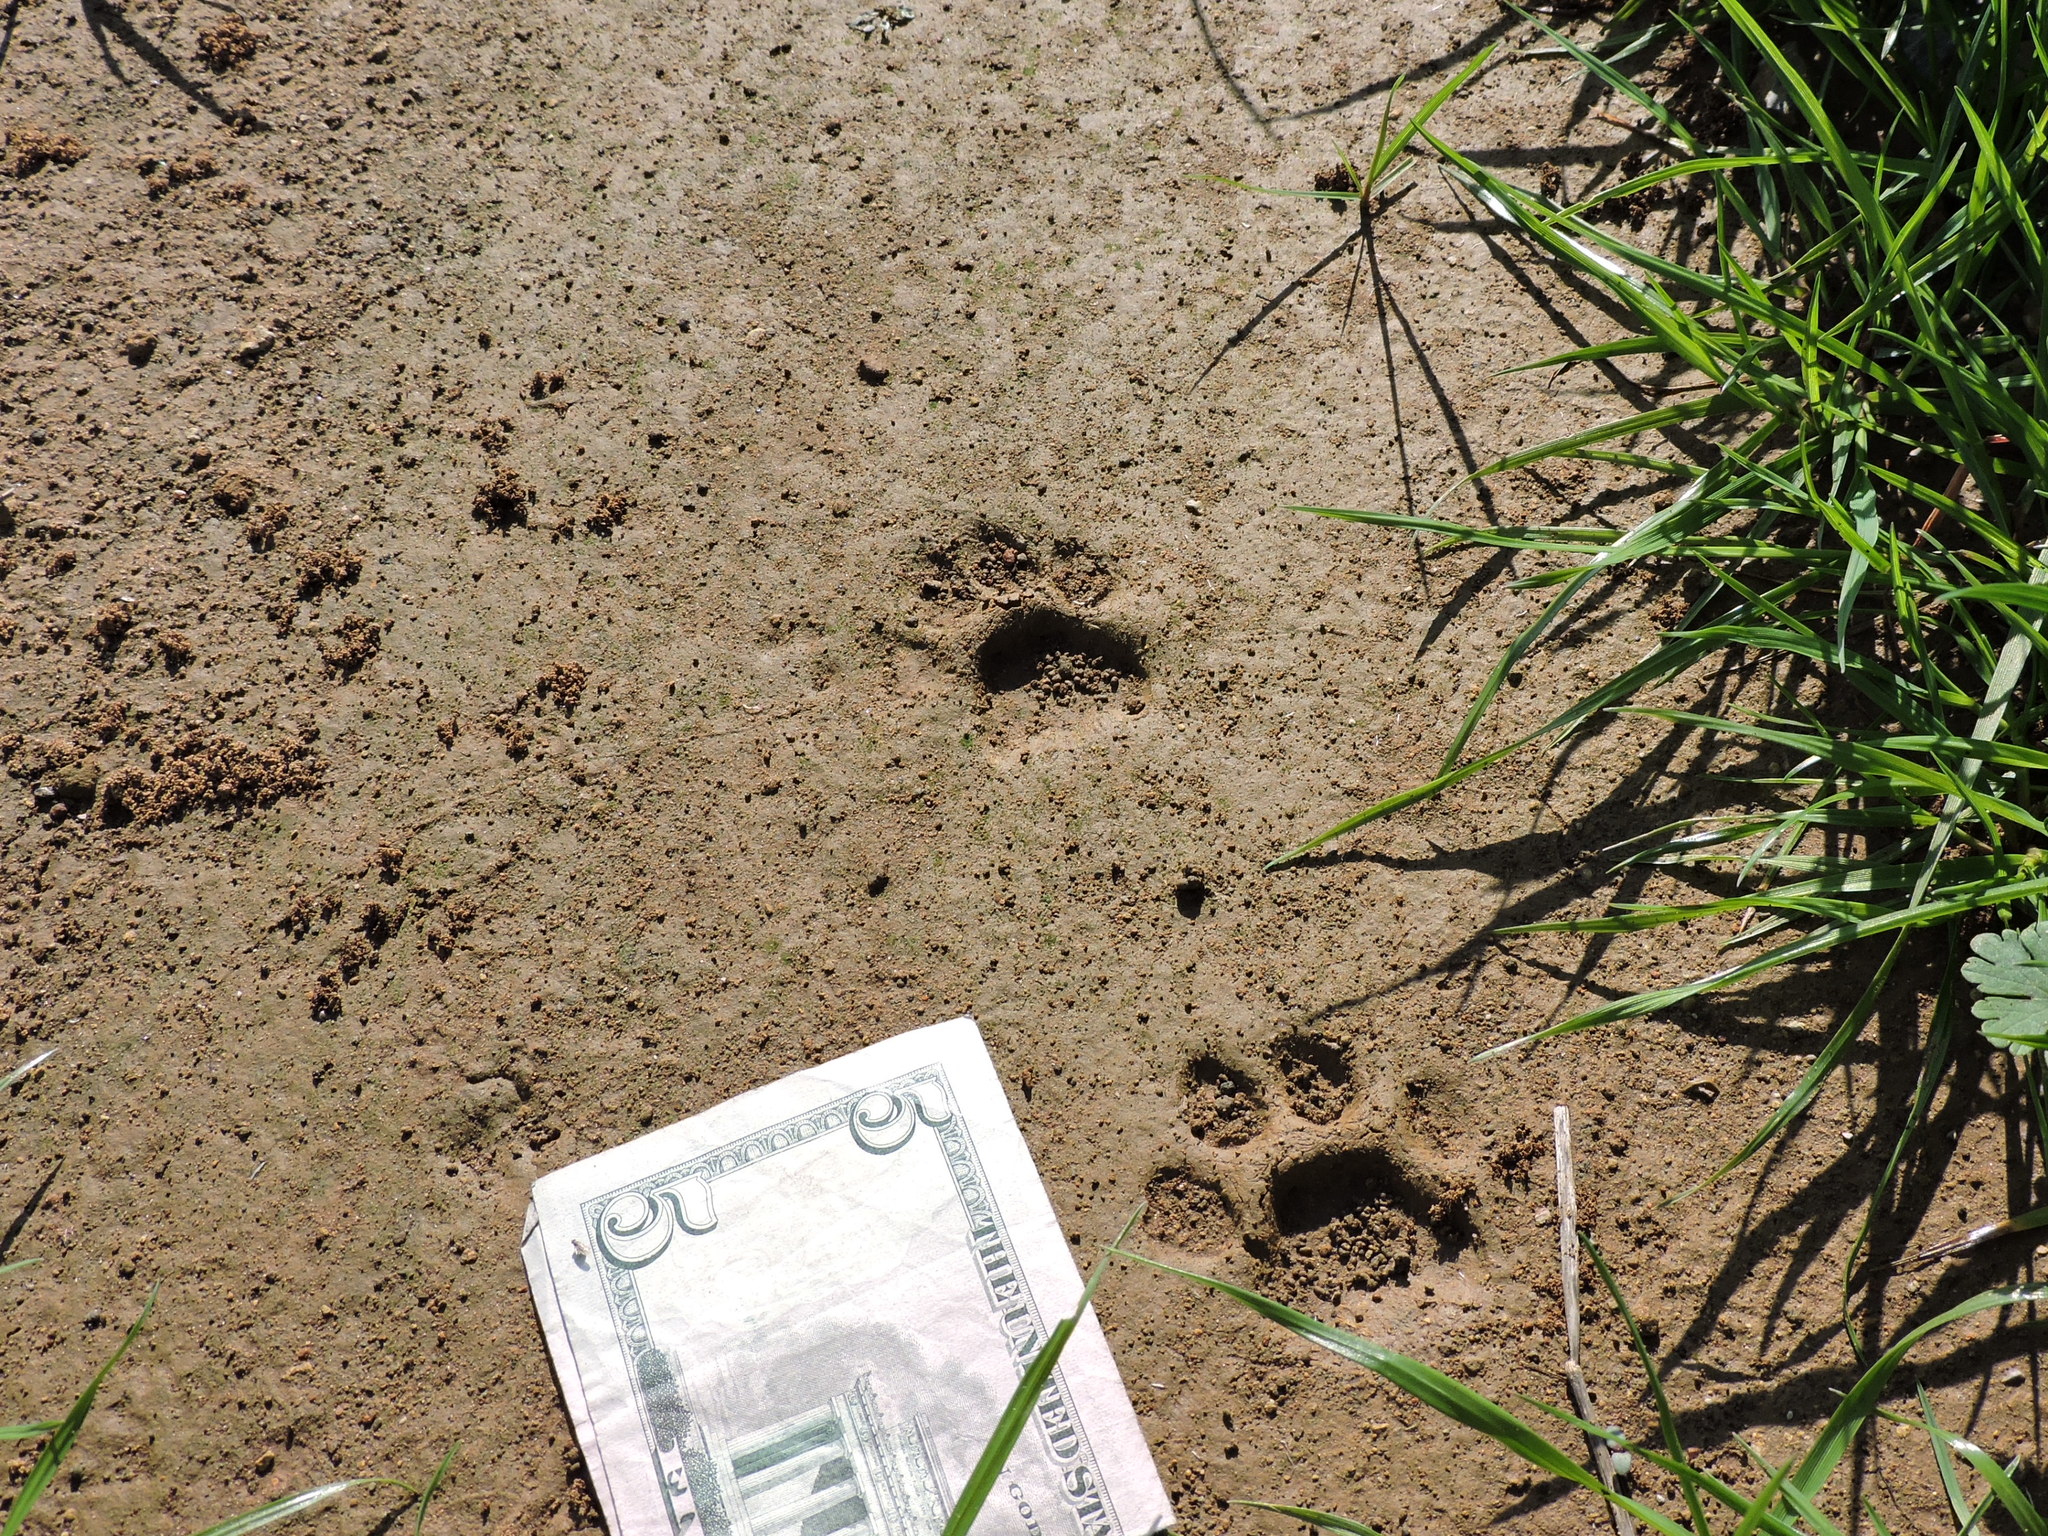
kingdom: Animalia
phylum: Chordata
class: Mammalia
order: Carnivora
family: Felidae
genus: Lynx
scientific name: Lynx rufus
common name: Bobcat
